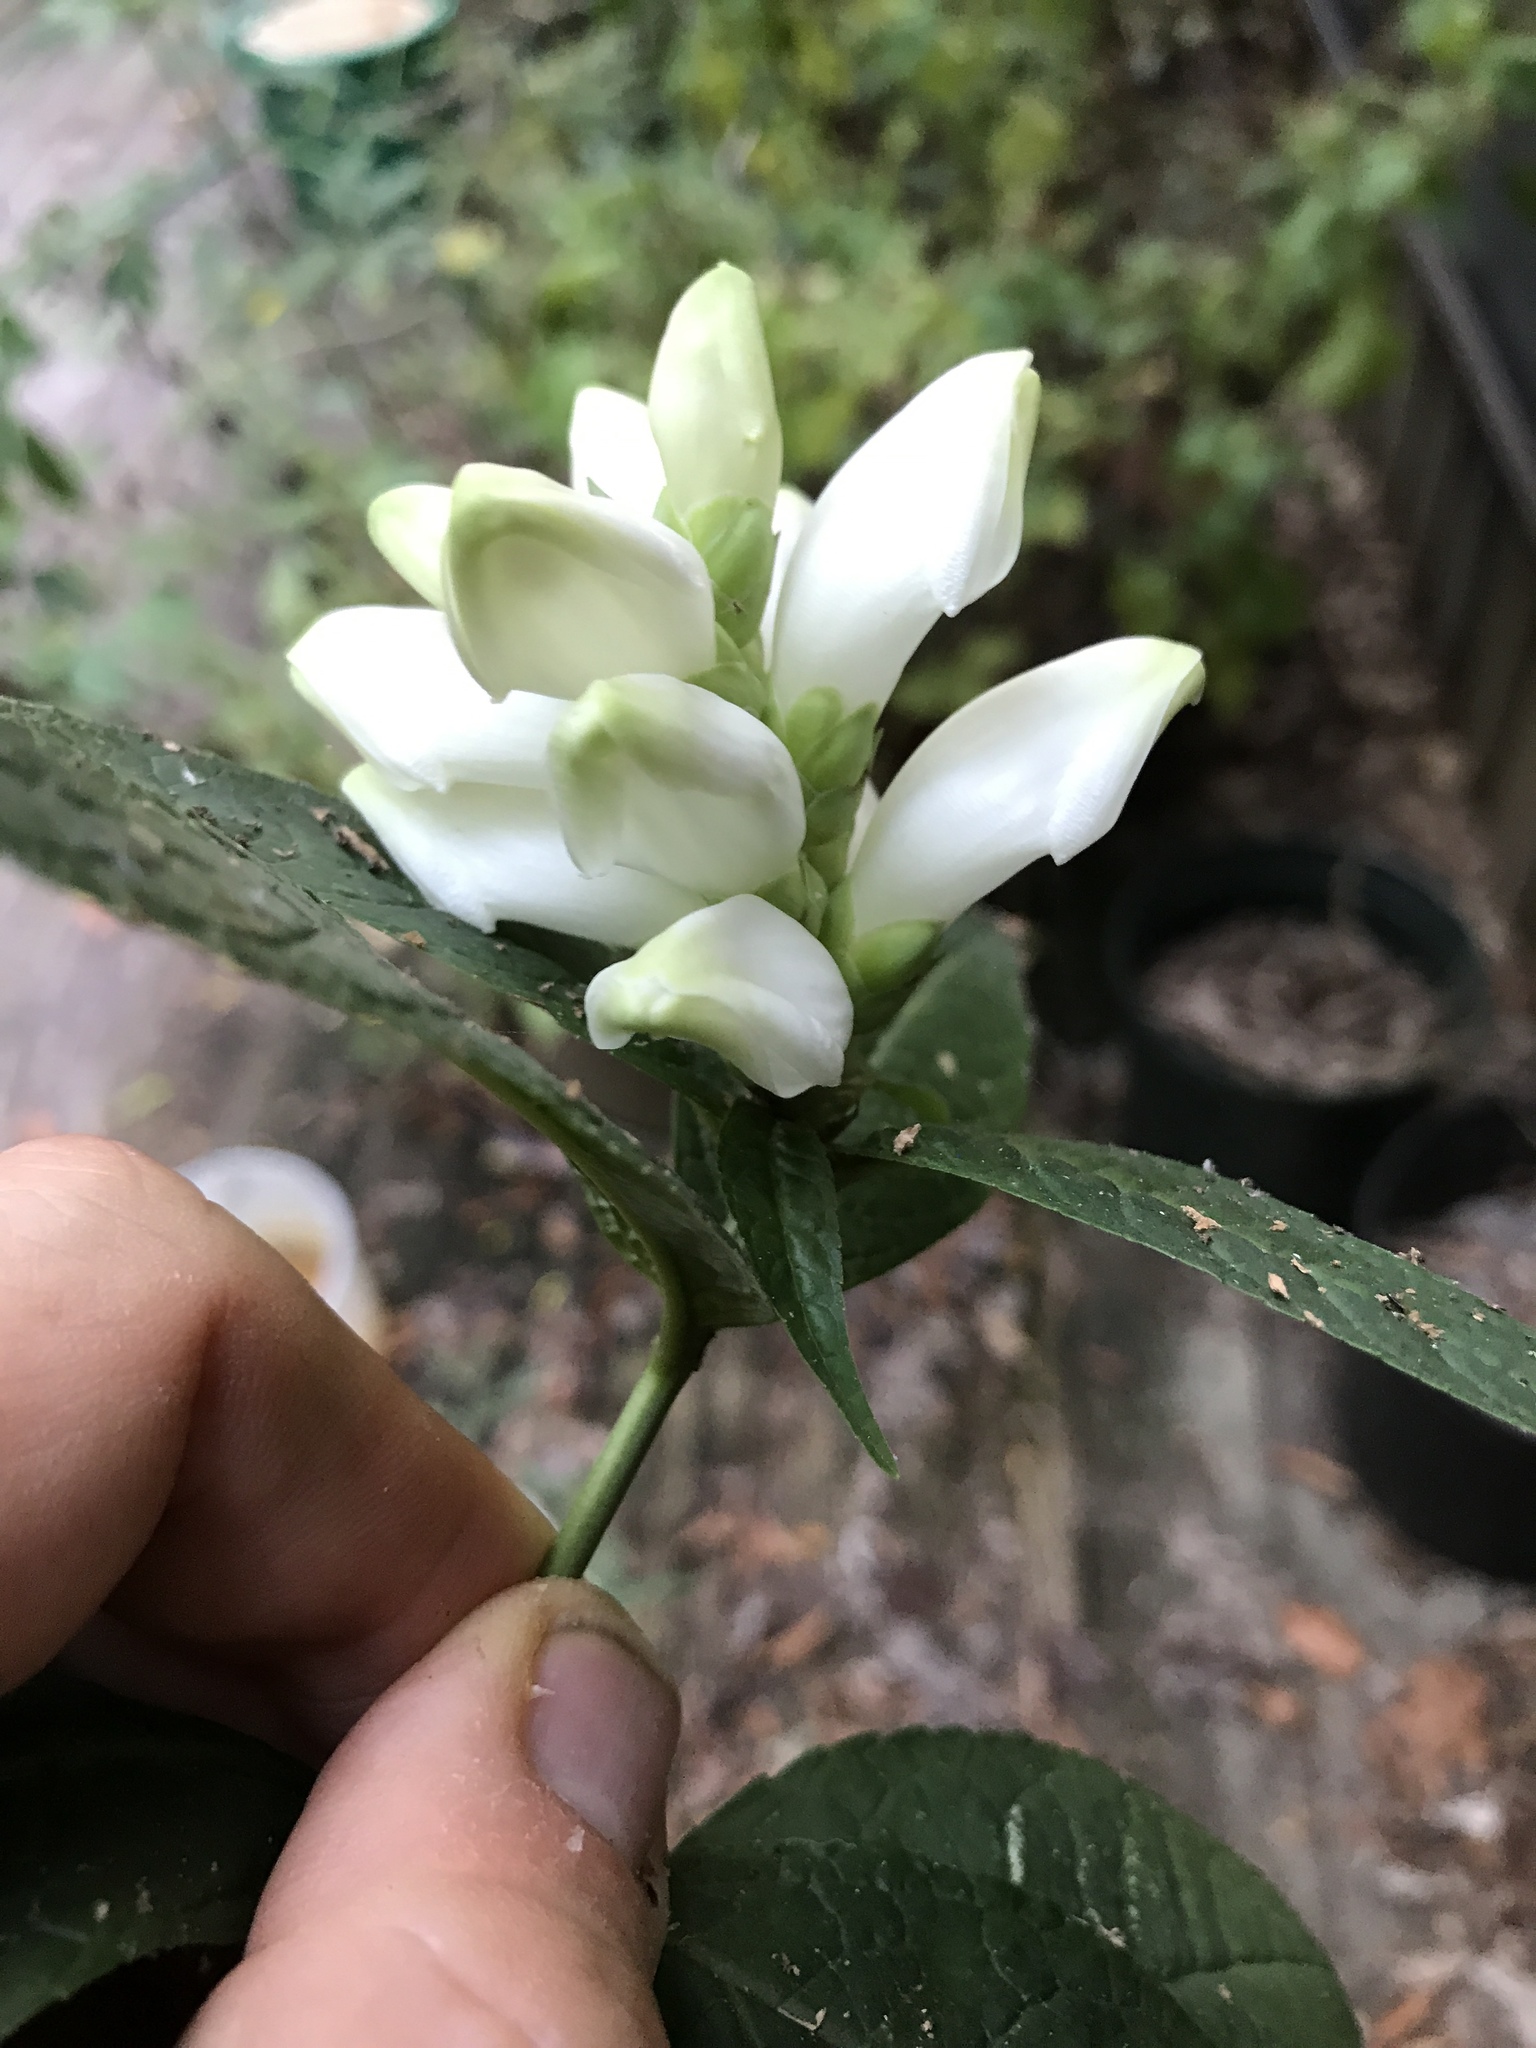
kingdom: Plantae
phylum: Tracheophyta
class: Magnoliopsida
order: Lamiales
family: Plantaginaceae
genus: Chelone
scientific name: Chelone glabra
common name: Snakehead
